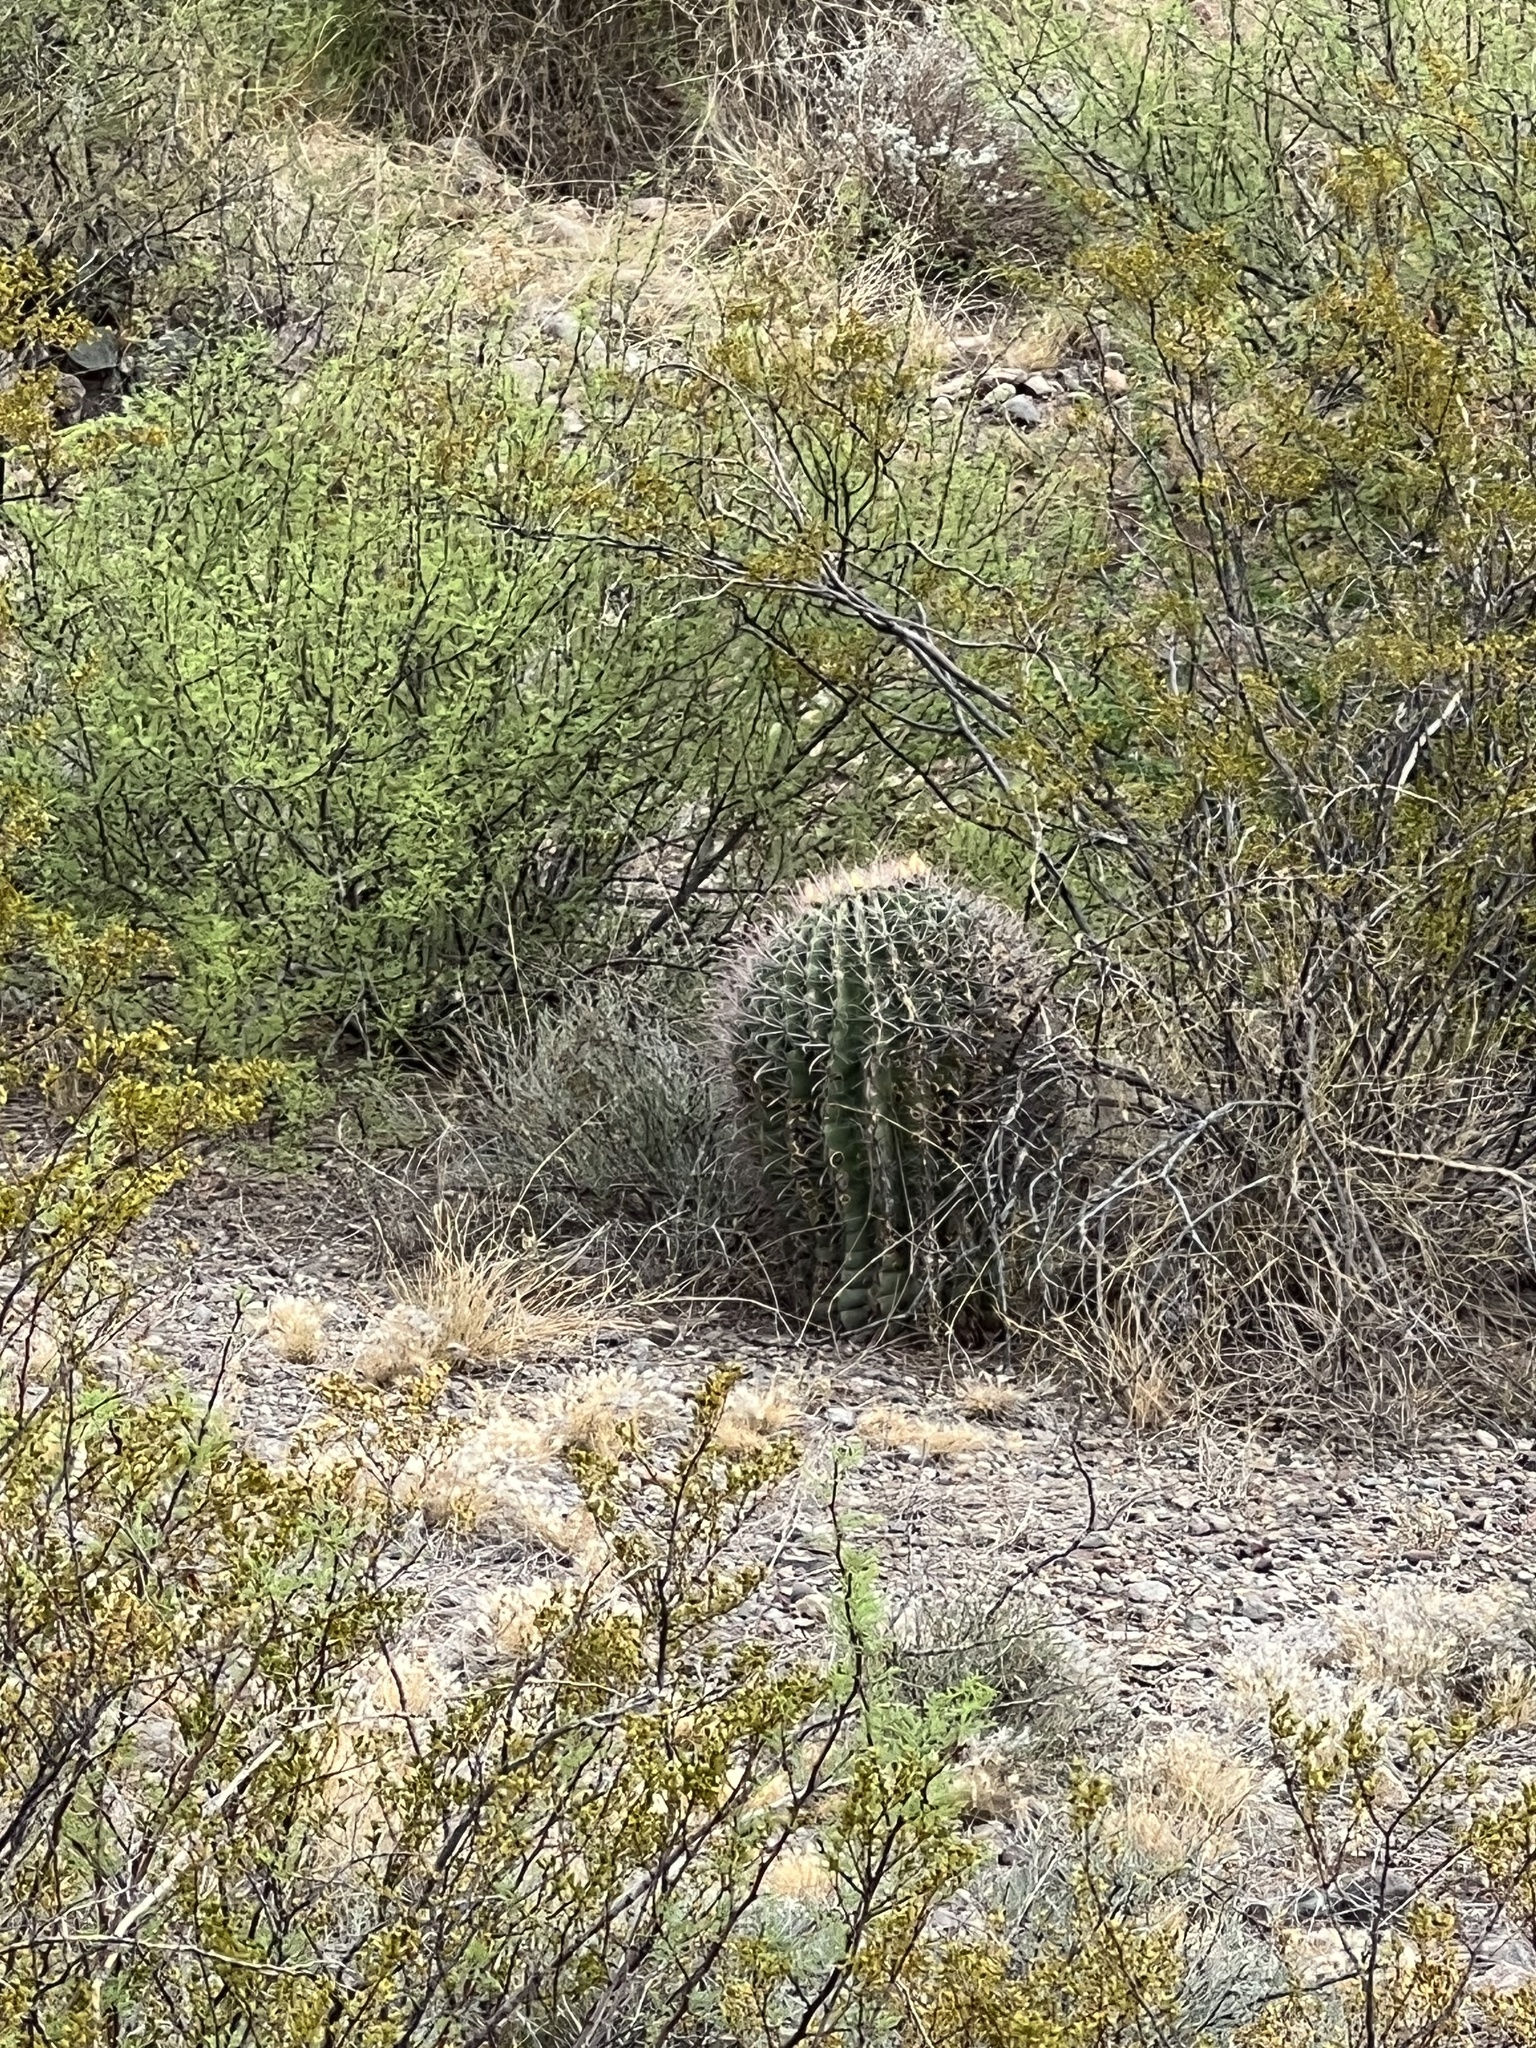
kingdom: Plantae
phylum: Tracheophyta
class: Magnoliopsida
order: Caryophyllales
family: Cactaceae
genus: Ferocactus
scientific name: Ferocactus wislizeni
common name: Candy barrel cactus
